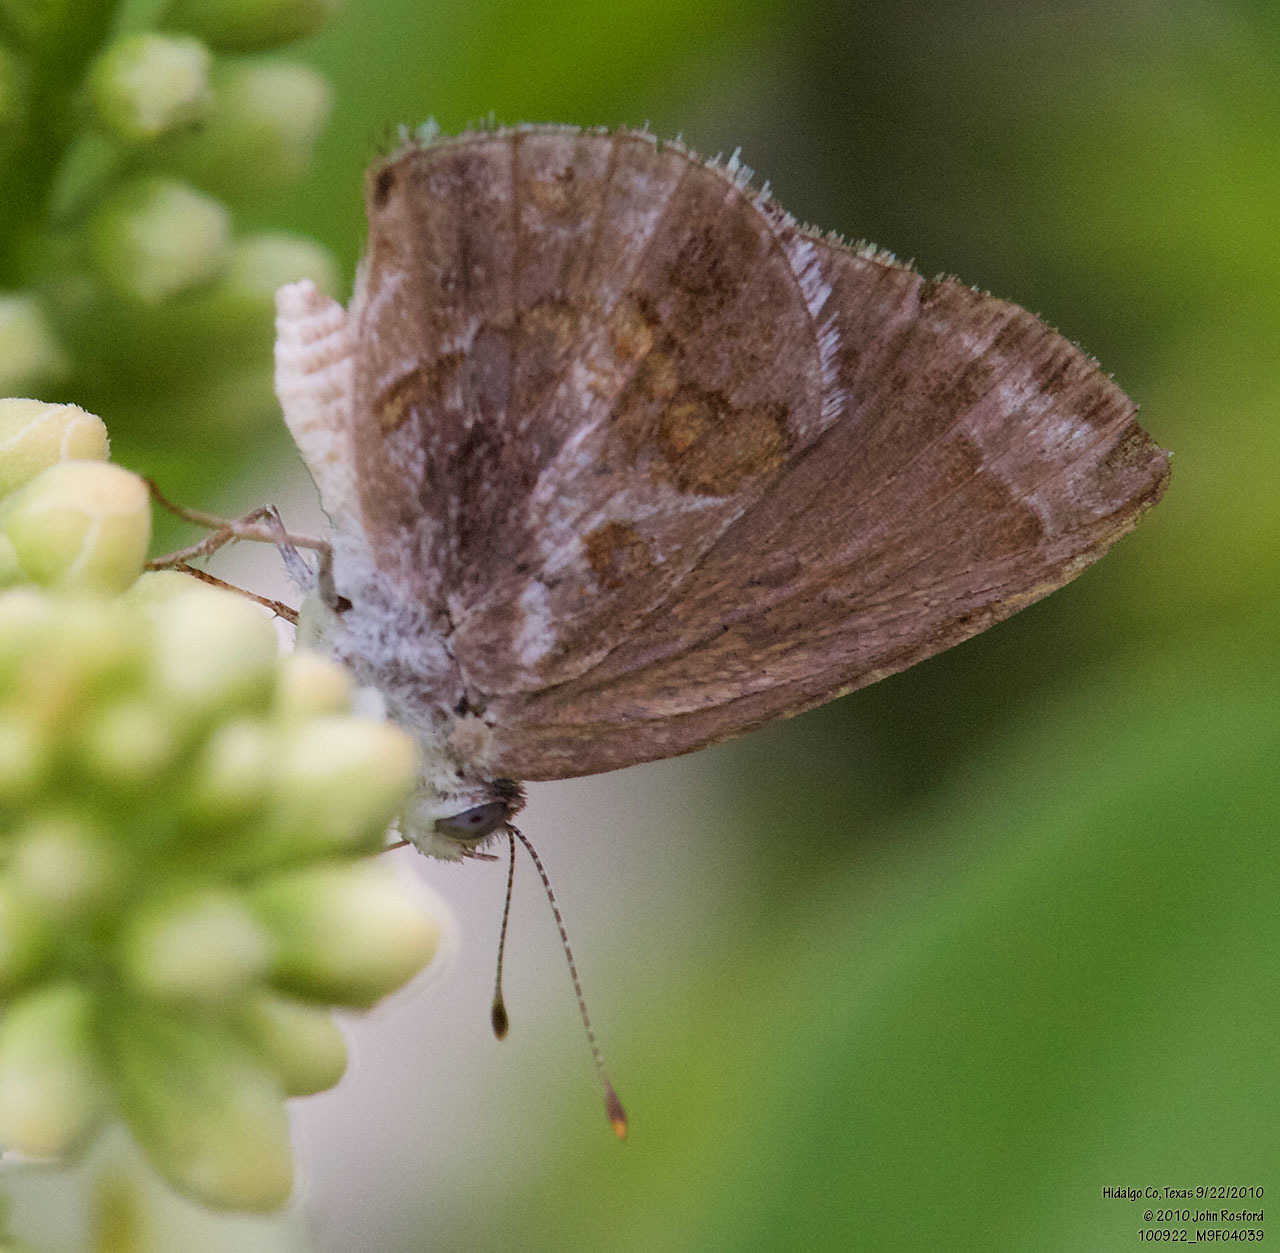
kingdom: Animalia
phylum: Arthropoda
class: Insecta
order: Lepidoptera
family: Lycaenidae
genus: Strymon
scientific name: Strymon bazochii
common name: Lantana scrub-hairstreak
